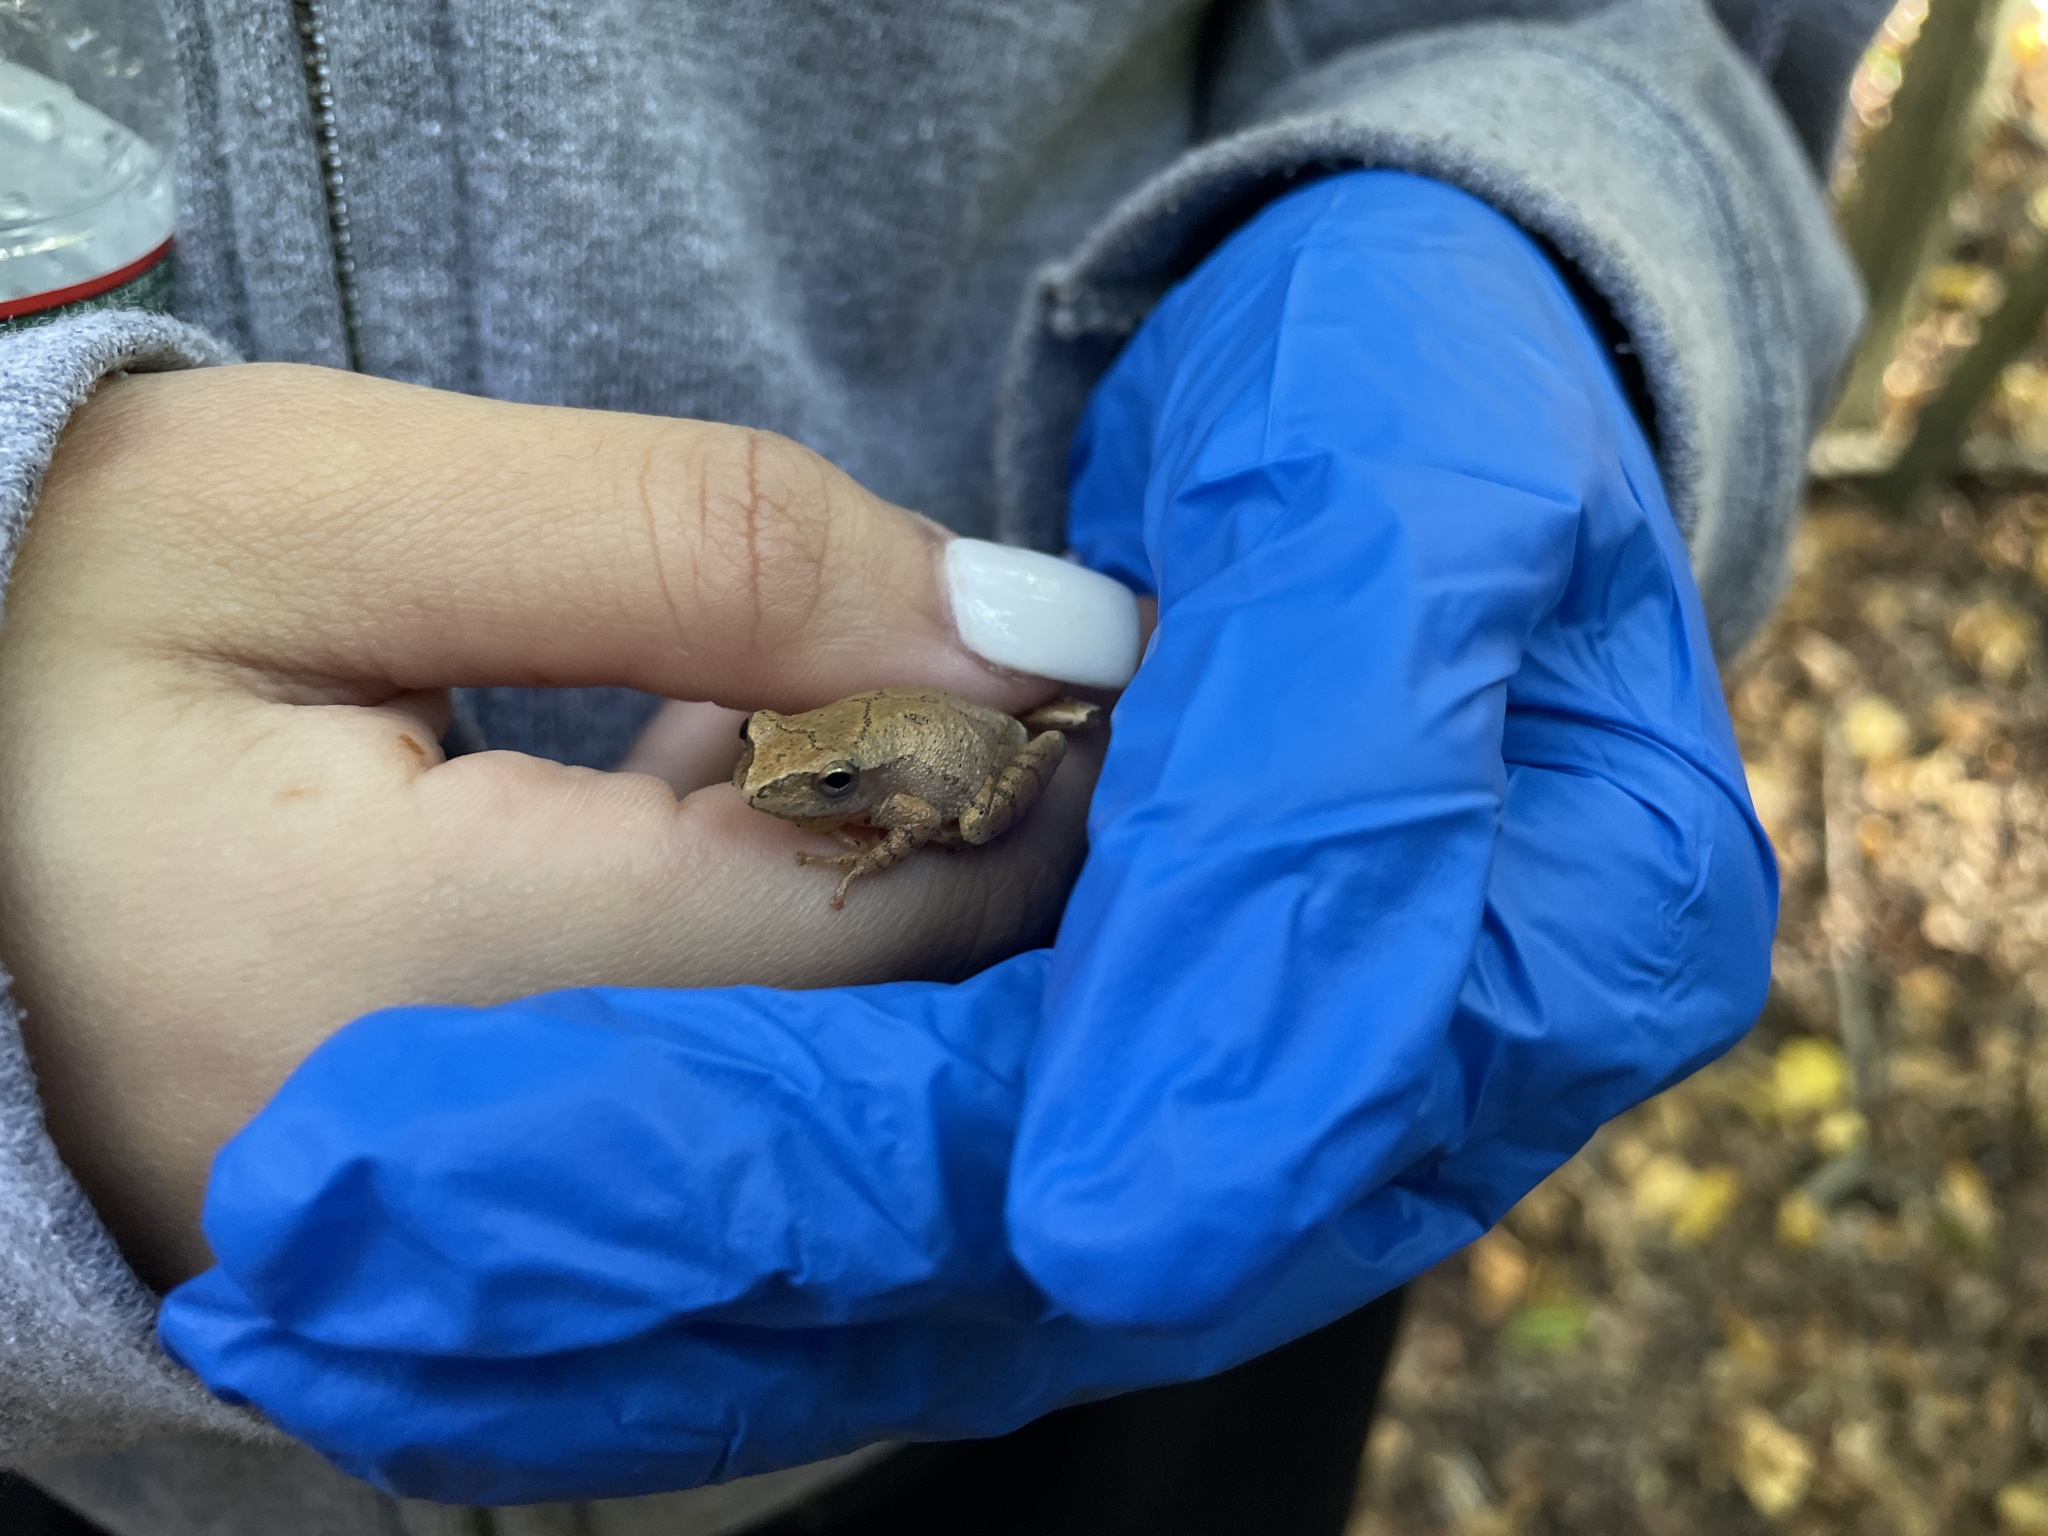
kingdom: Animalia
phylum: Chordata
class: Amphibia
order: Anura
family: Hylidae
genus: Pseudacris
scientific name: Pseudacris crucifer
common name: Spring peeper
